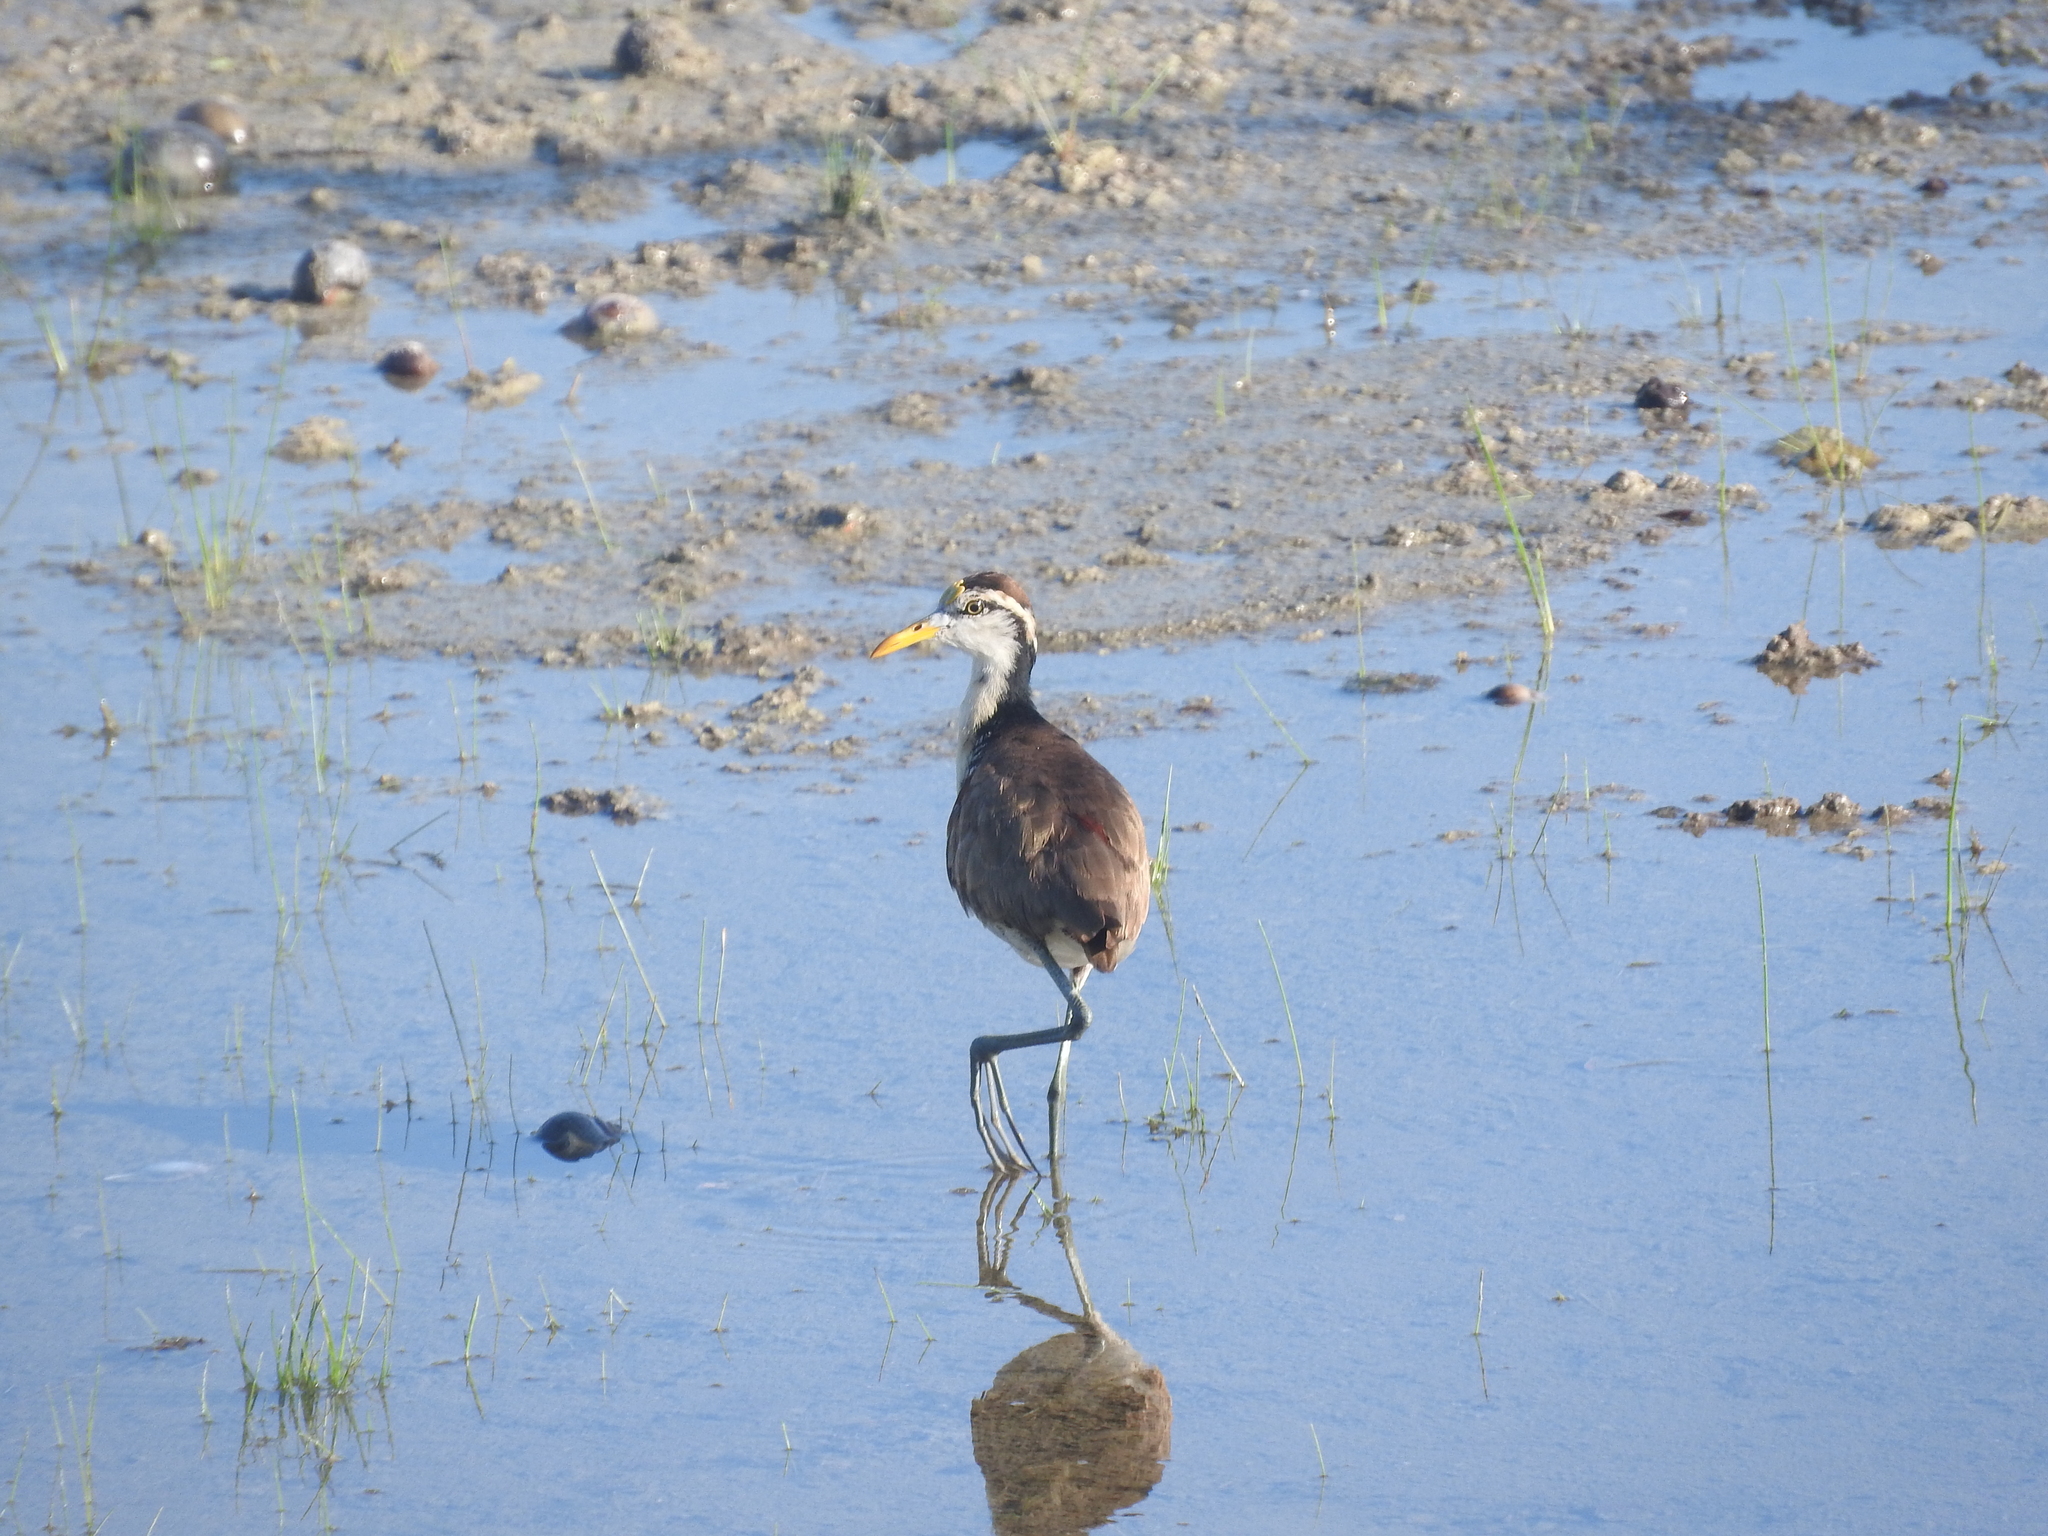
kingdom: Animalia
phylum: Chordata
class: Aves
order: Charadriiformes
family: Jacanidae
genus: Jacana
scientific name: Jacana spinosa
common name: Northern jacana
